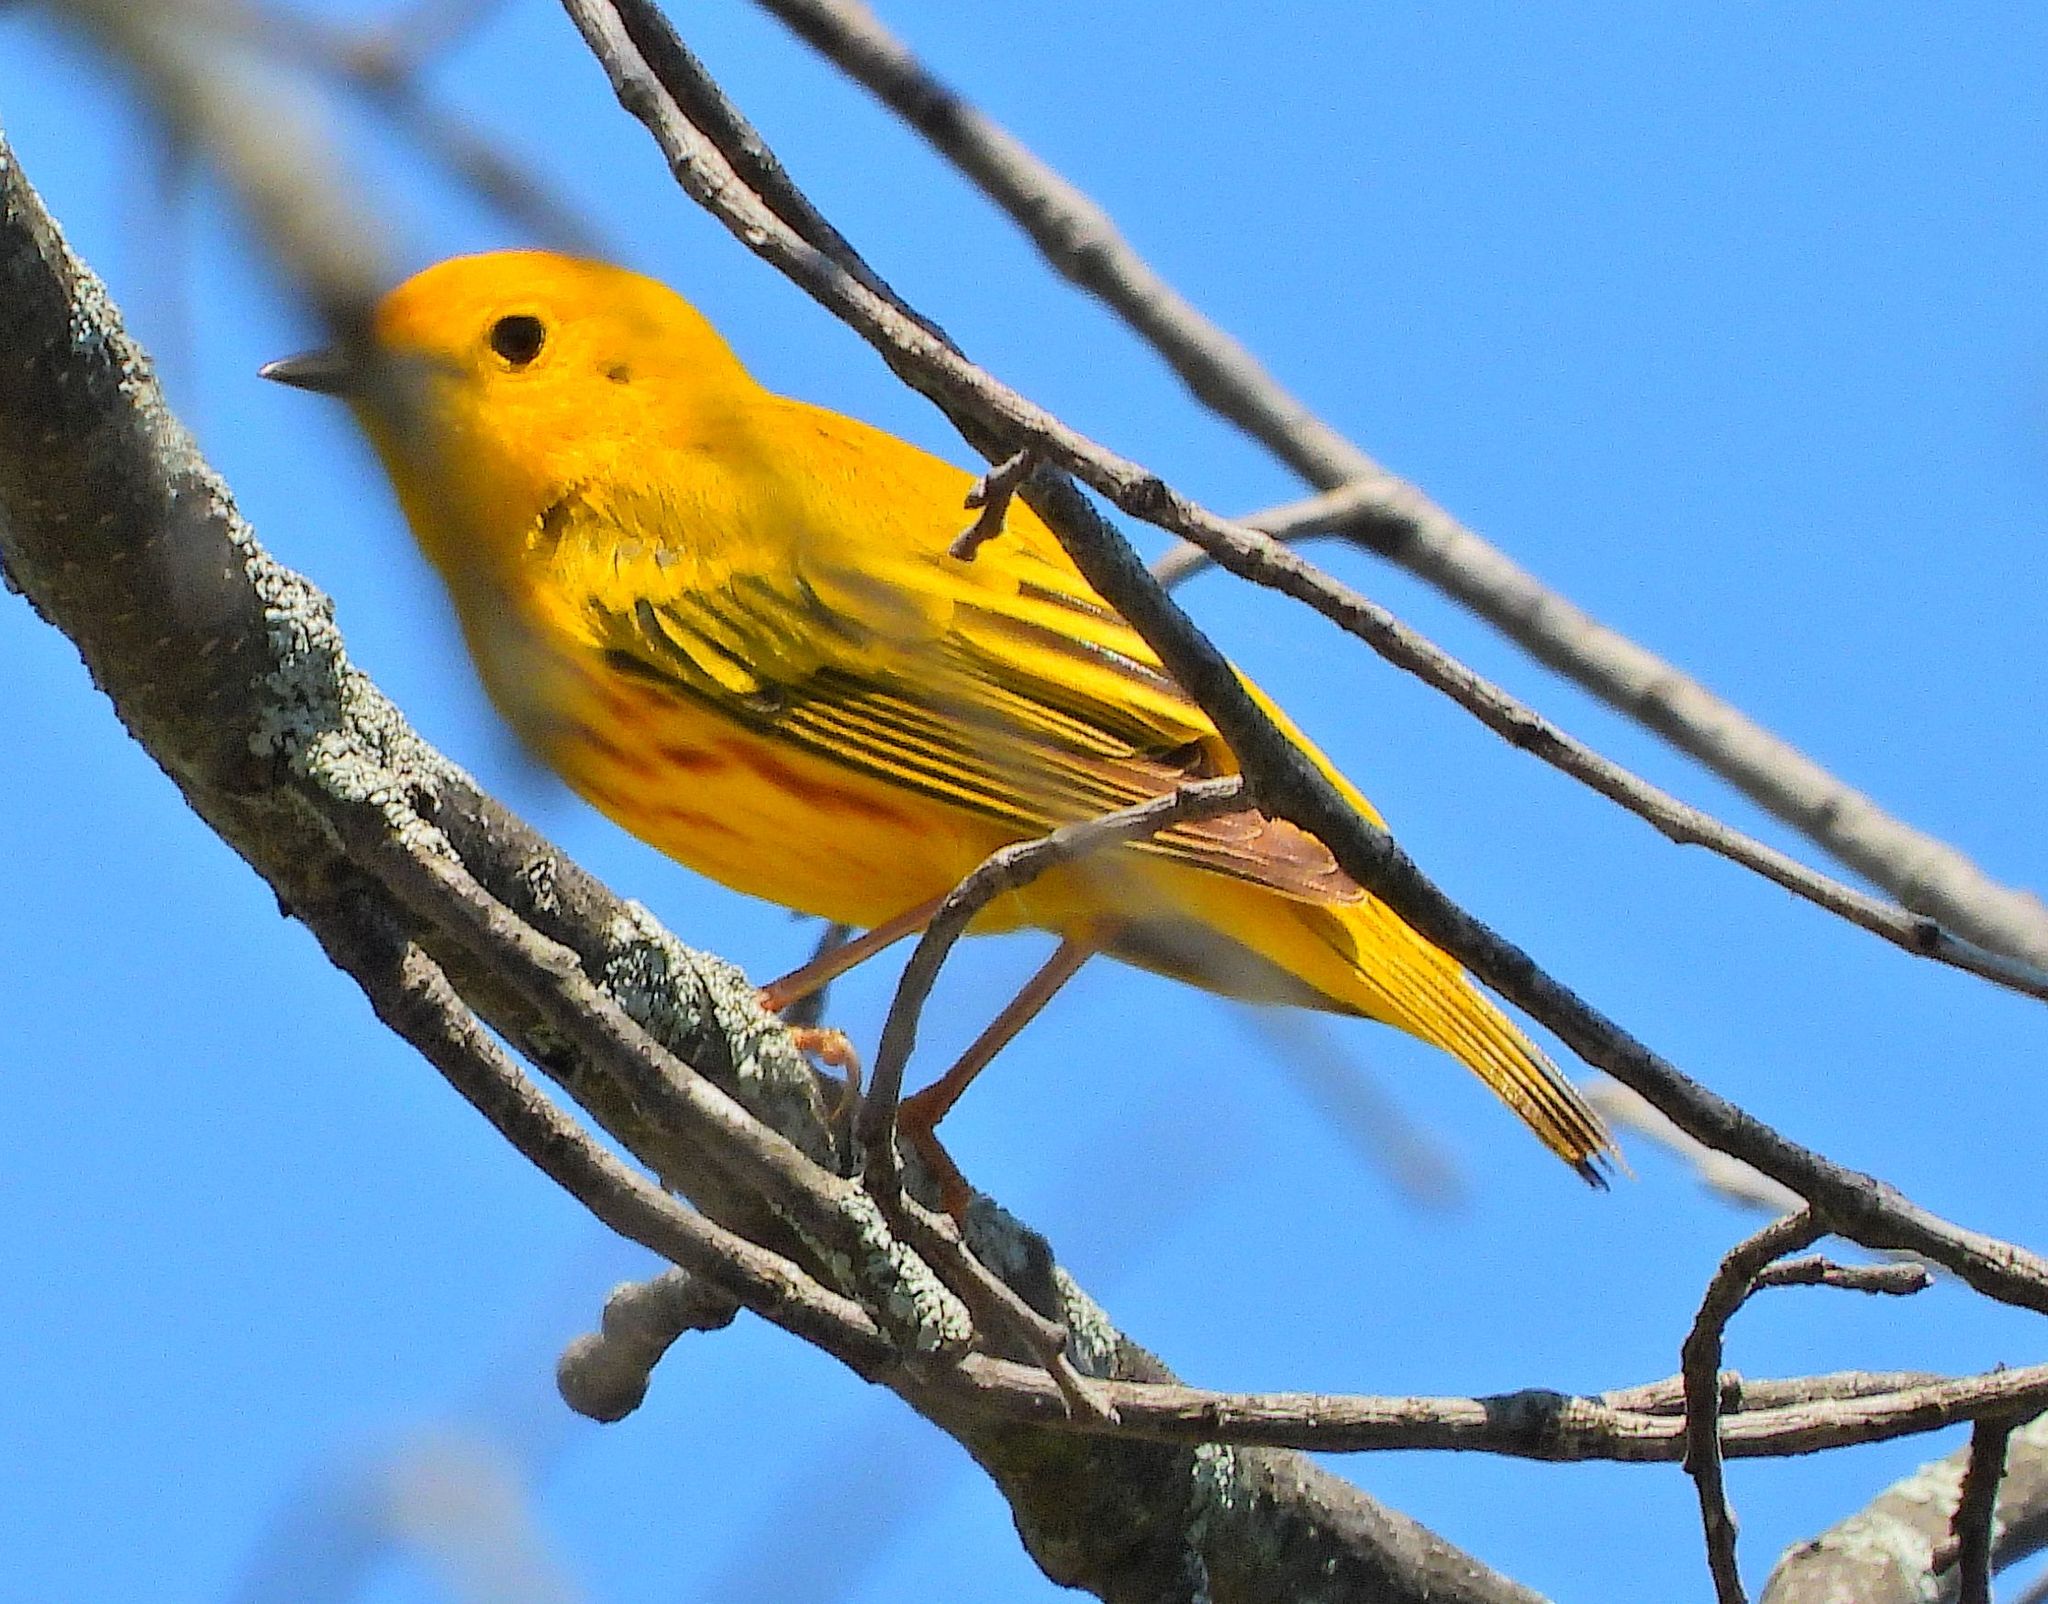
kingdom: Animalia
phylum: Chordata
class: Aves
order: Passeriformes
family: Parulidae
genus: Setophaga
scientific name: Setophaga petechia
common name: Yellow warbler
